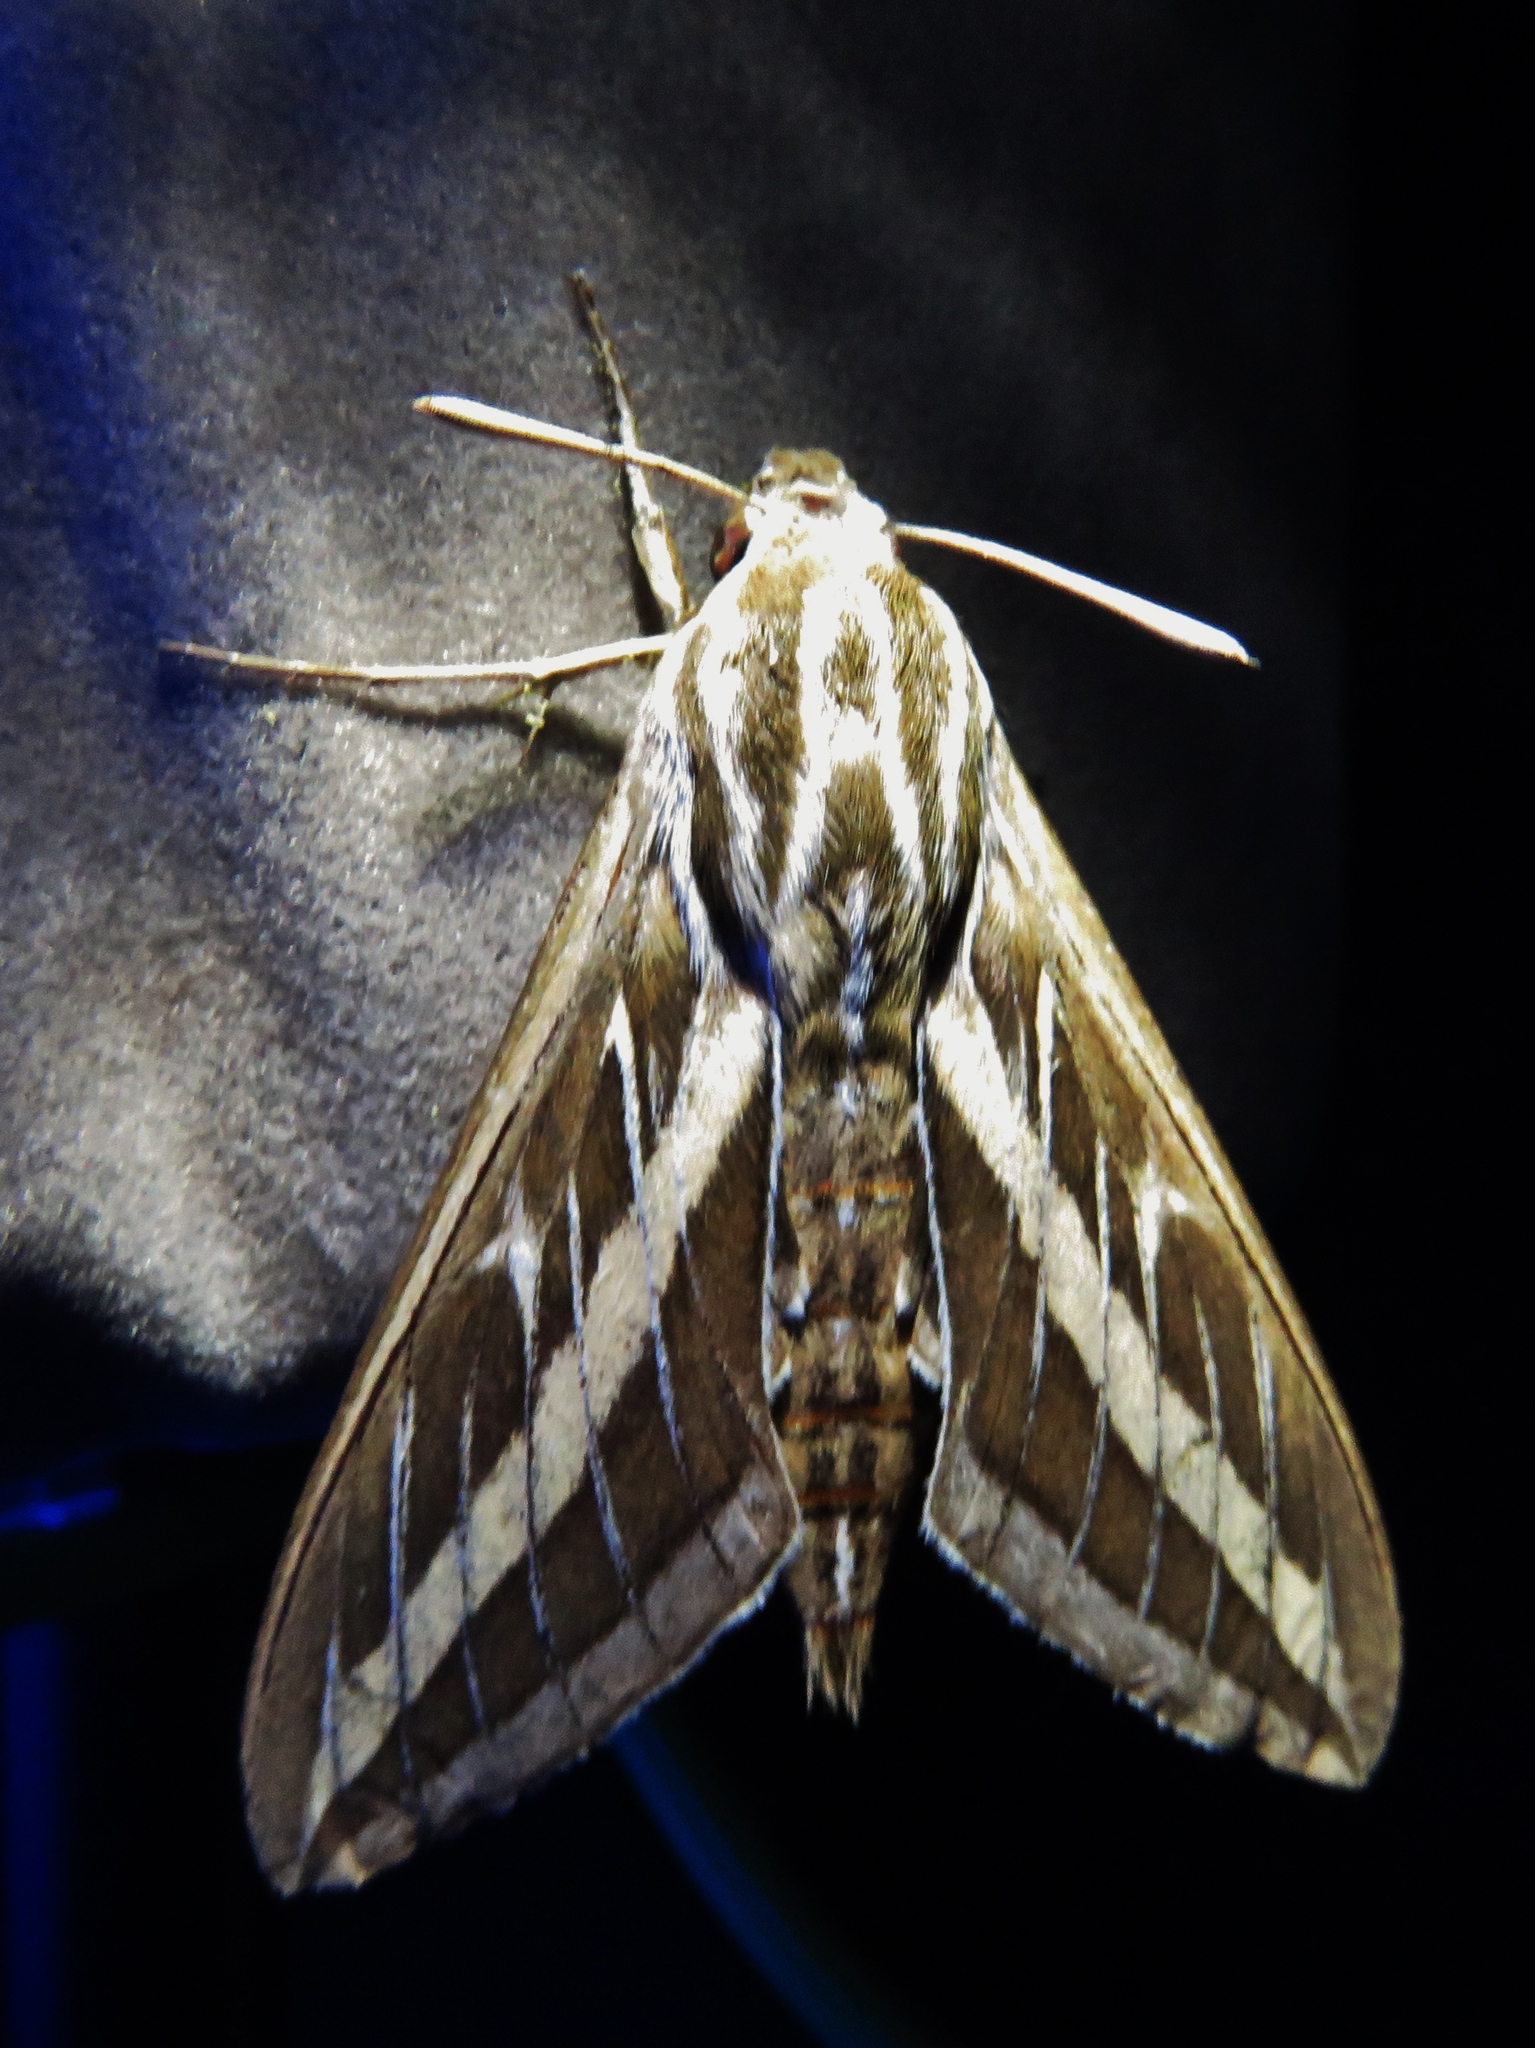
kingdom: Animalia
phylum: Arthropoda
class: Insecta
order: Lepidoptera
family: Sphingidae
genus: Hyles
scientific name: Hyles lineata
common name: White-lined sphinx
